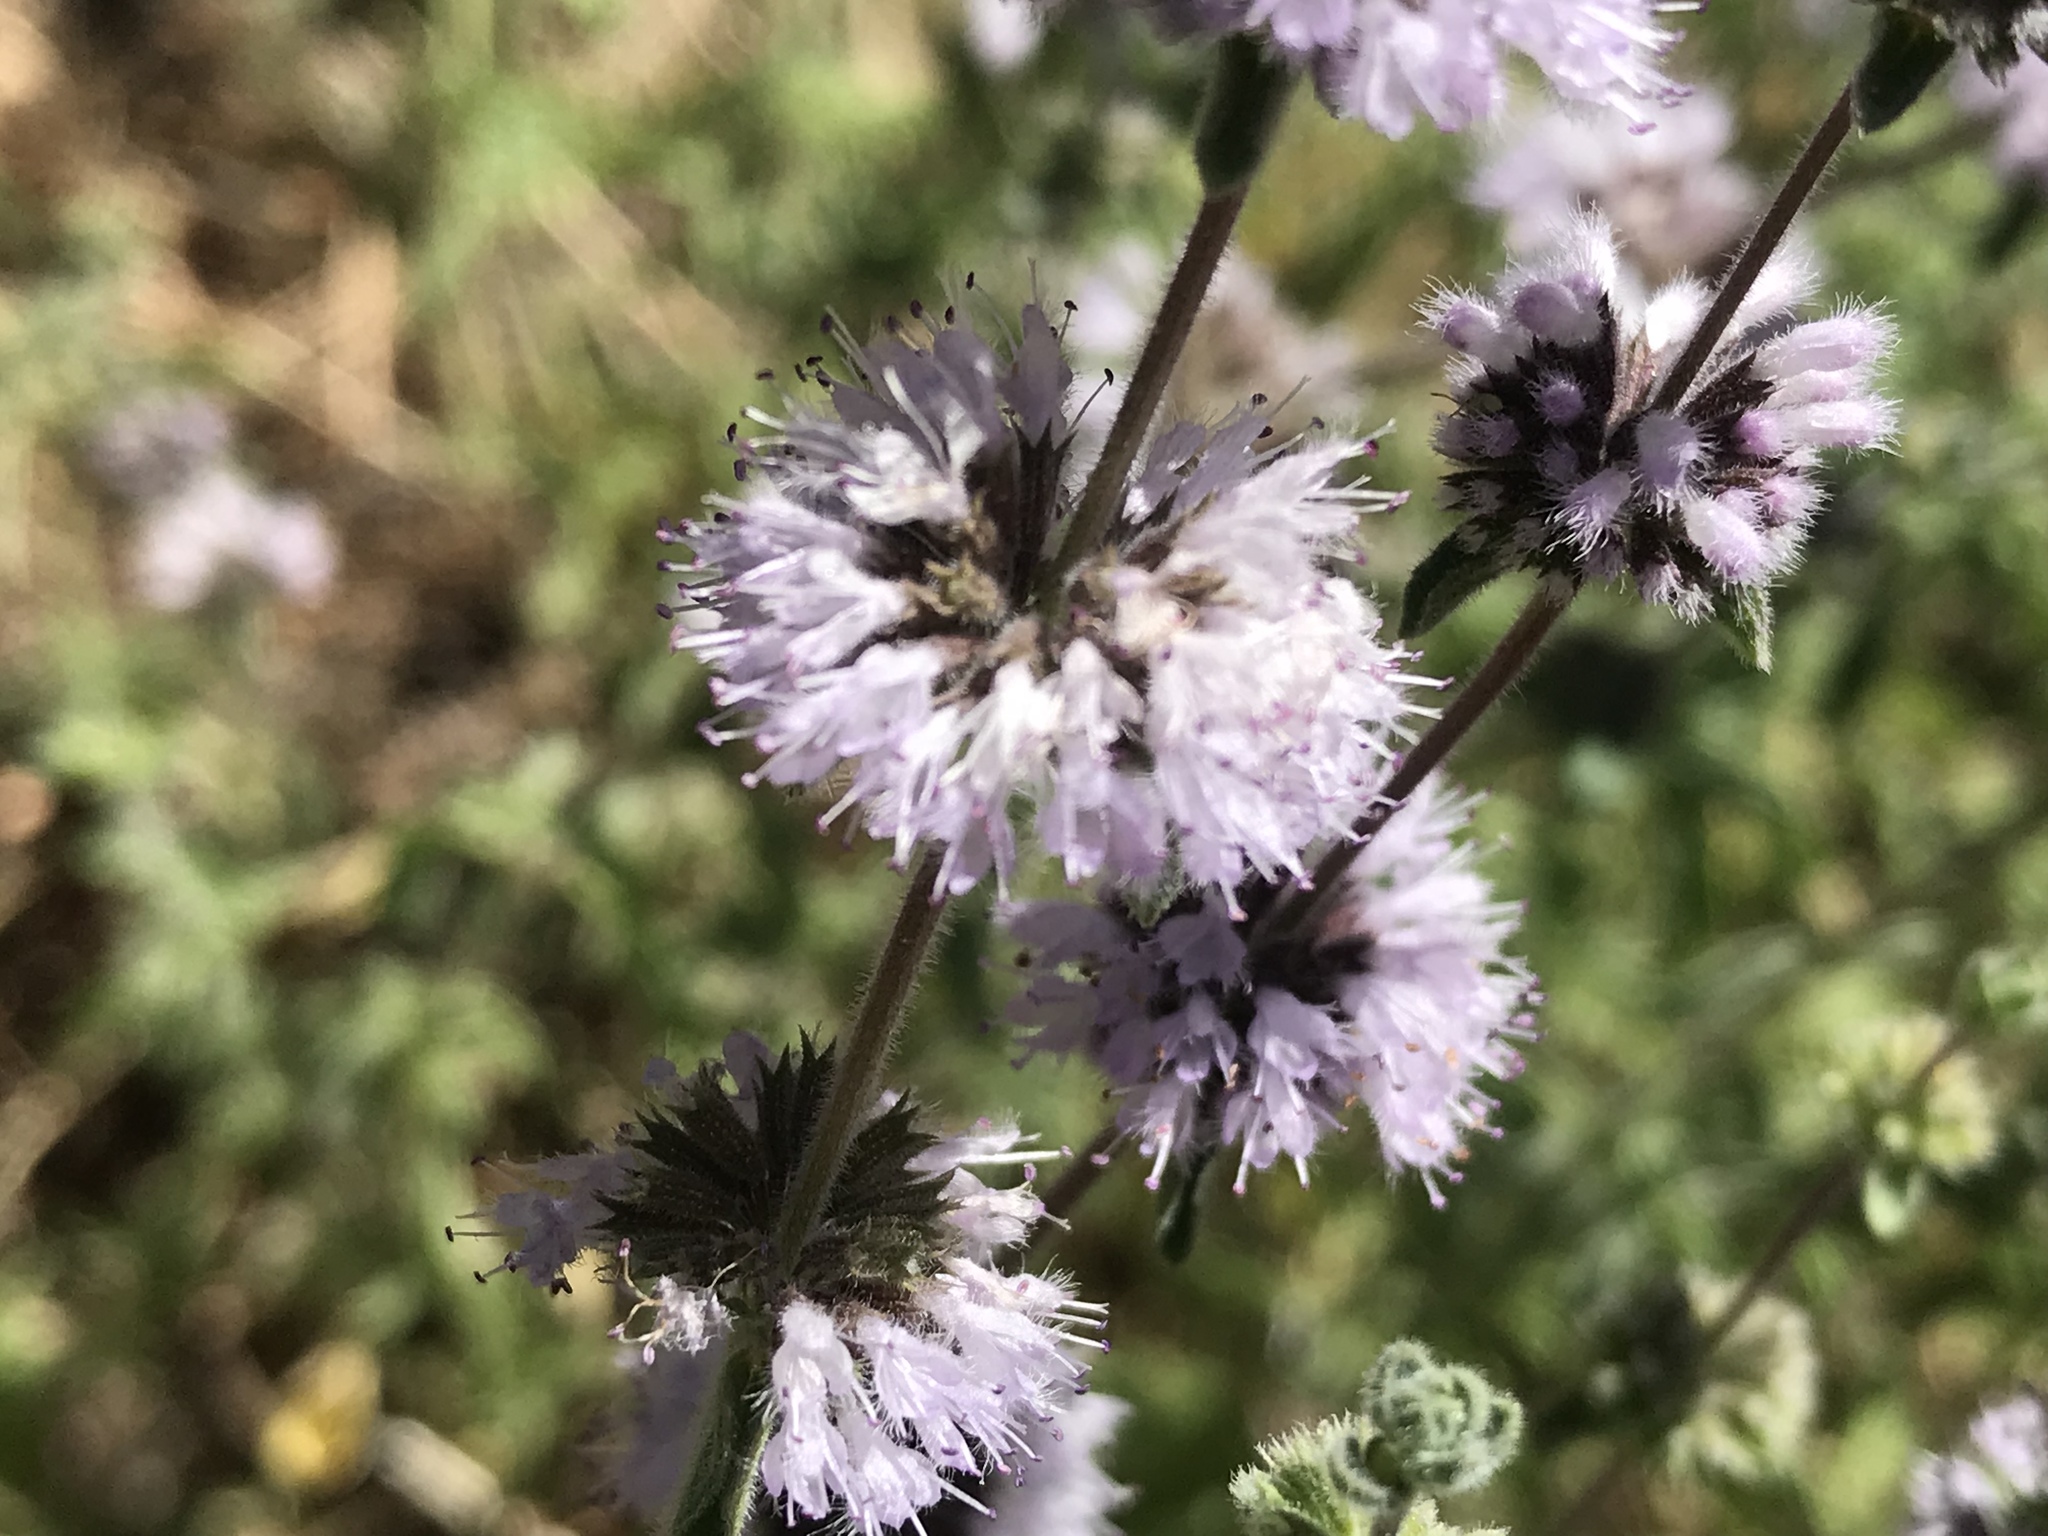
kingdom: Plantae
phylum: Tracheophyta
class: Magnoliopsida
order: Lamiales
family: Lamiaceae
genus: Mentha
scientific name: Mentha pulegium
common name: Pennyroyal
